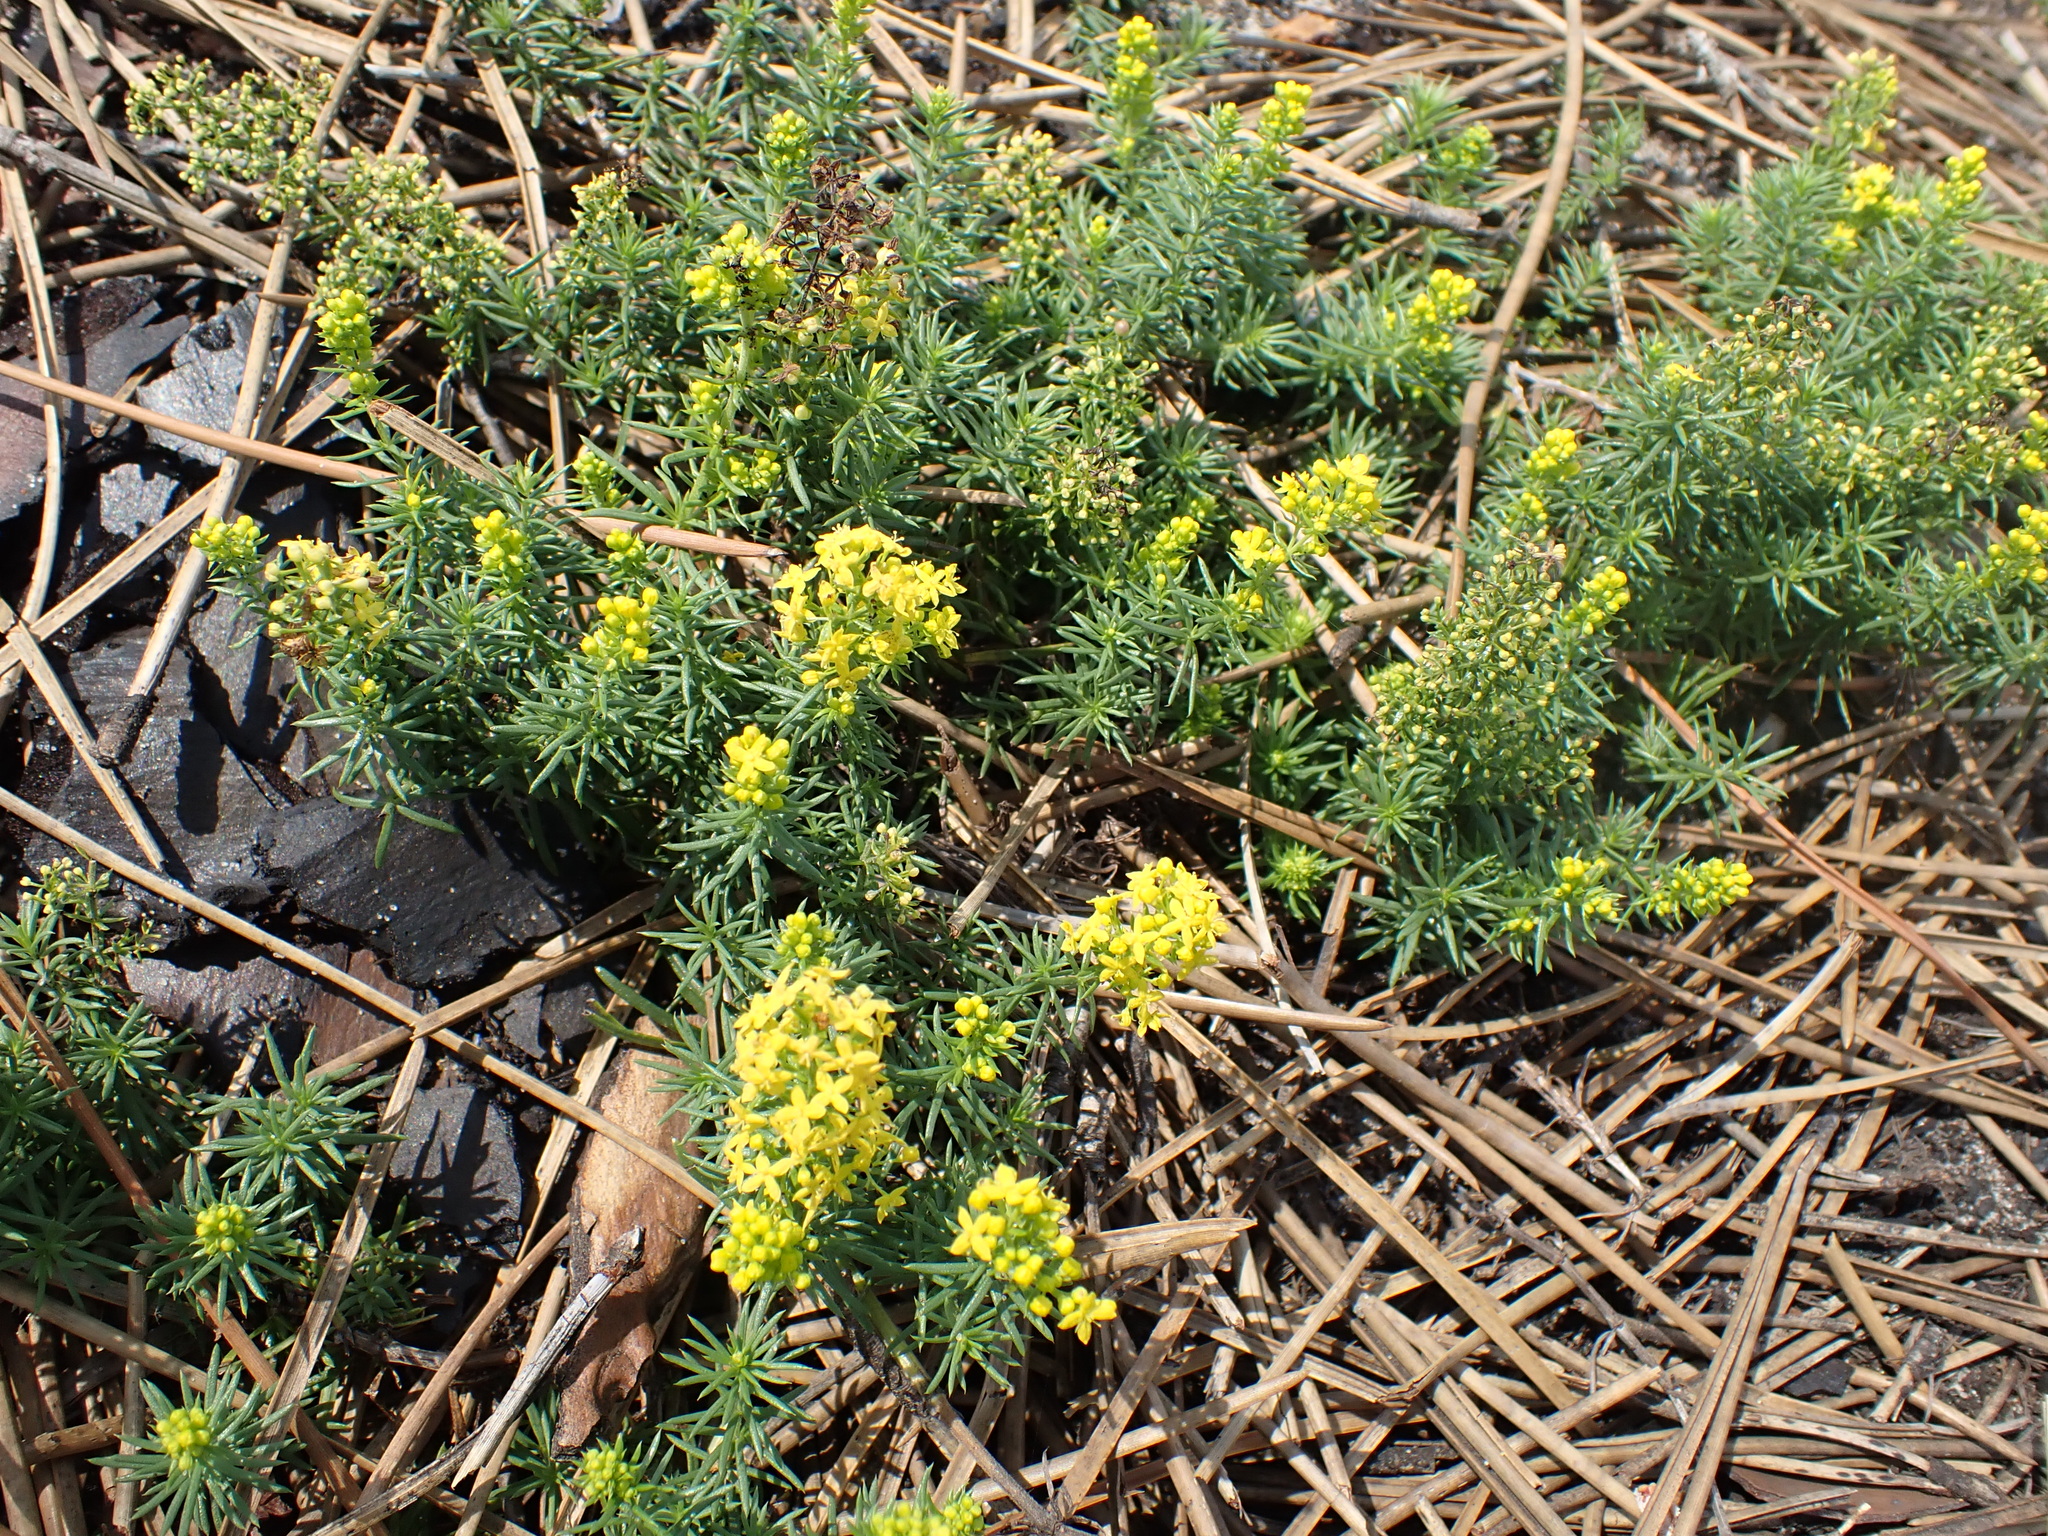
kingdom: Plantae
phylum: Tracheophyta
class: Magnoliopsida
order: Gentianales
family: Rubiaceae
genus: Galium
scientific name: Galium arenarium
